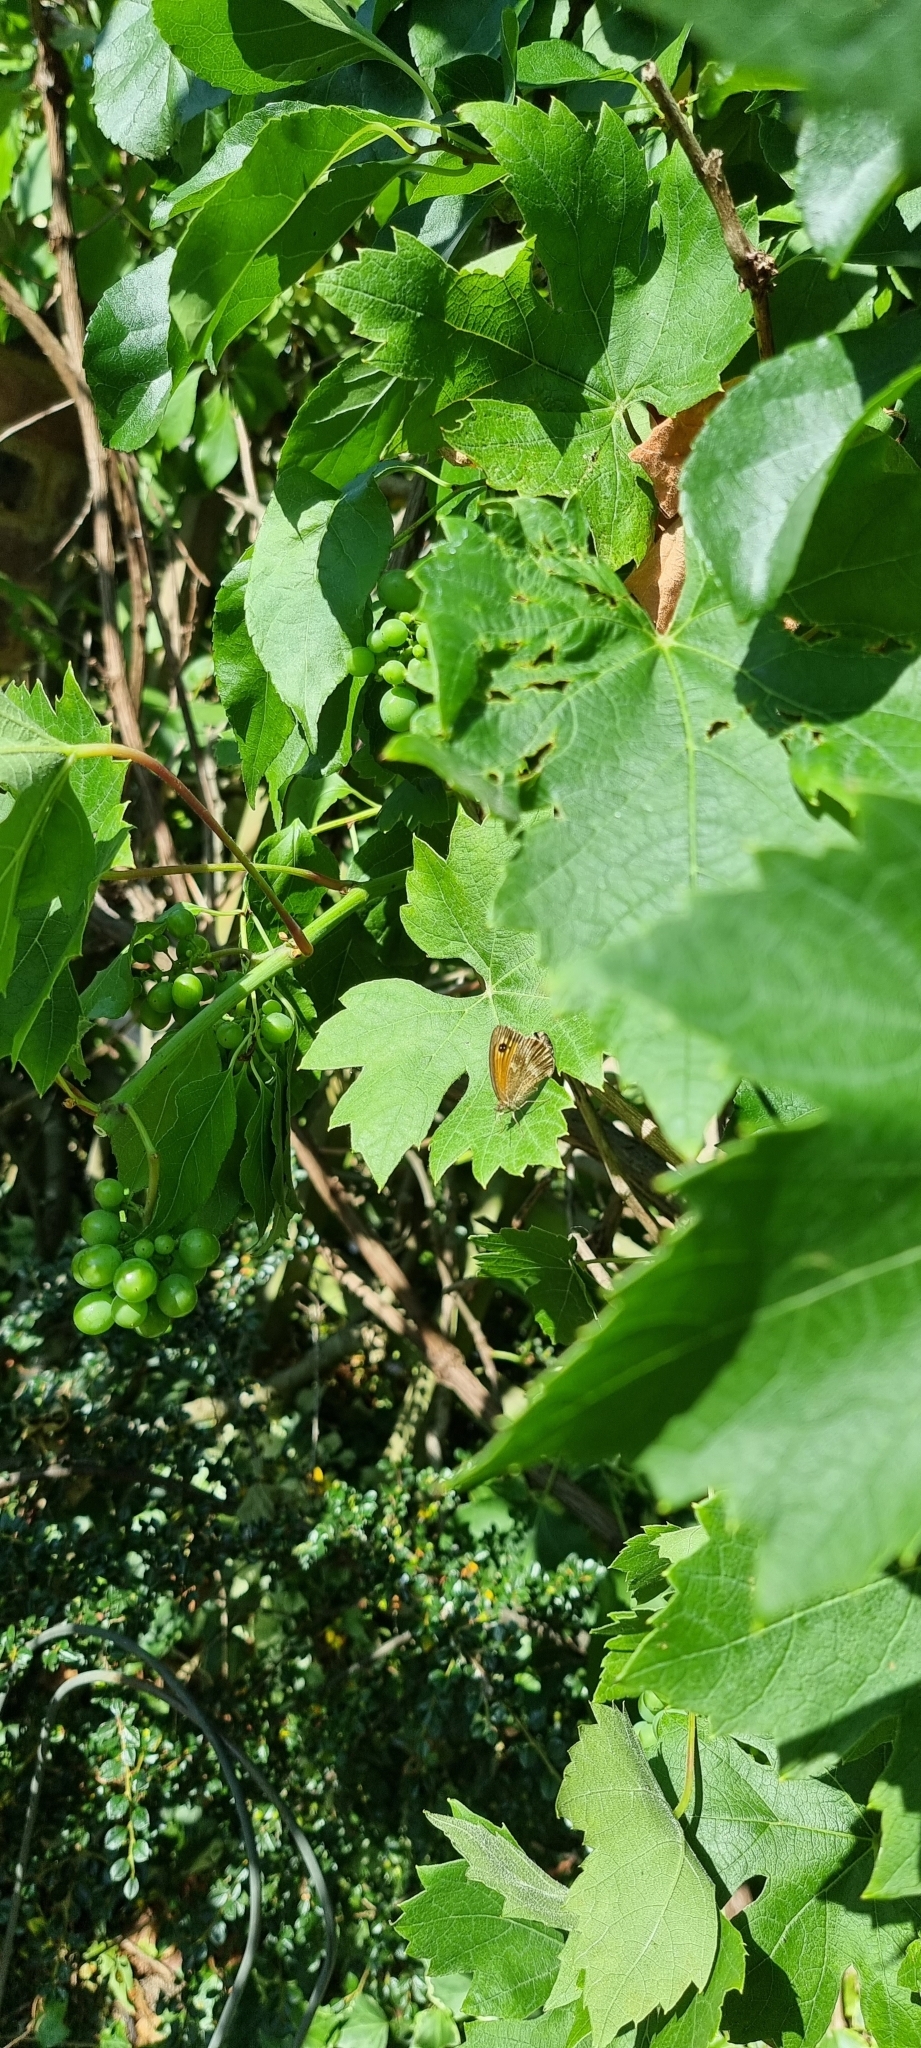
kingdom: Animalia
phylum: Arthropoda
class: Insecta
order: Lepidoptera
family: Nymphalidae
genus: Pyronia
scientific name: Pyronia tithonus
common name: Gatekeeper
